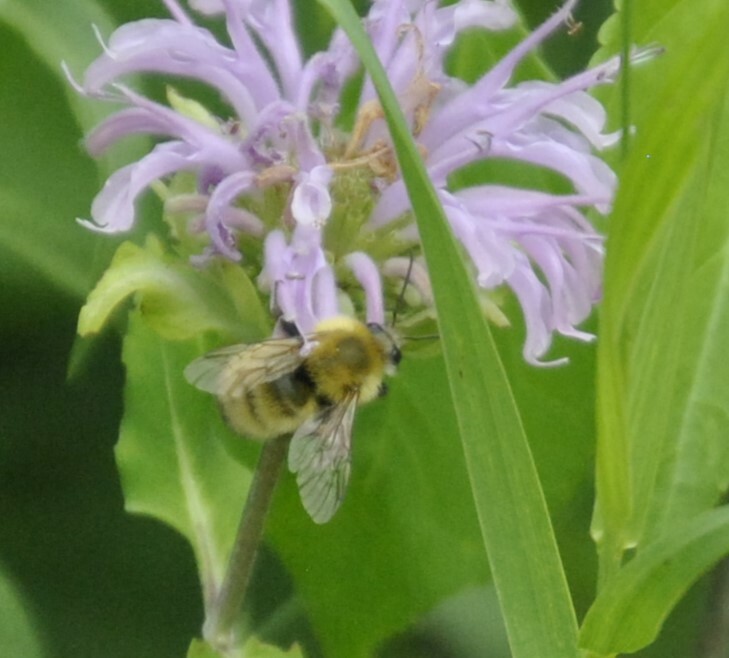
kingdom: Animalia
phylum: Arthropoda
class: Insecta
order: Hymenoptera
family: Apidae
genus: Bombus
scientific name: Bombus perplexus
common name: Confusing bumble bee
